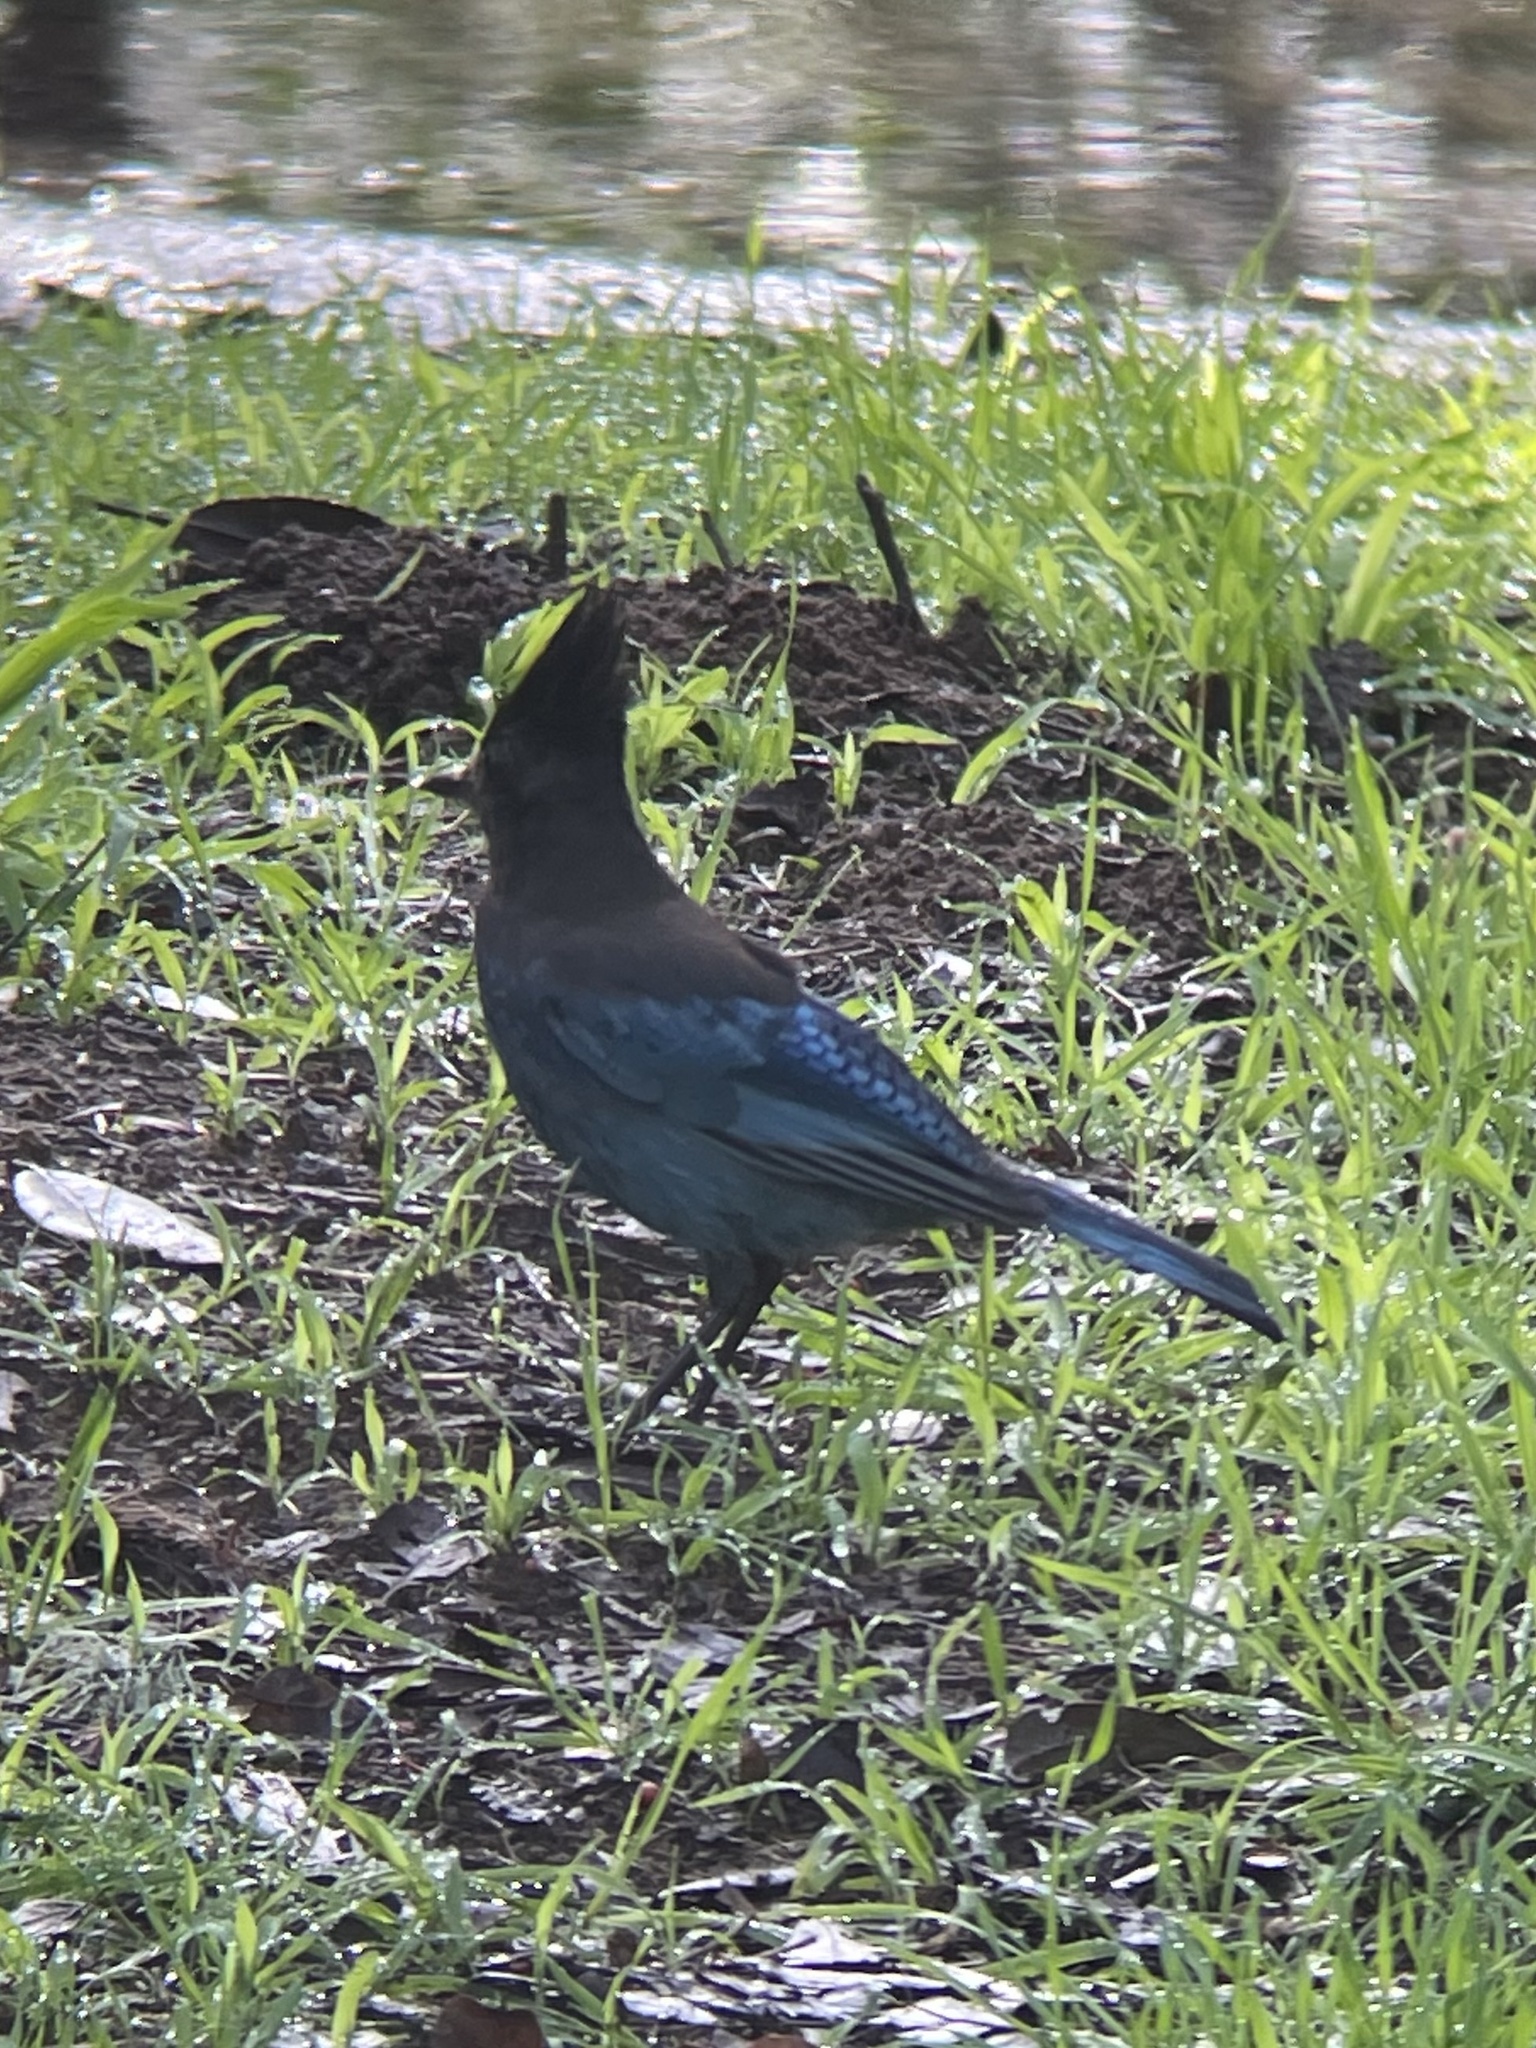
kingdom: Animalia
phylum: Chordata
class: Aves
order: Passeriformes
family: Corvidae
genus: Cyanocitta
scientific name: Cyanocitta stelleri
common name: Steller's jay
